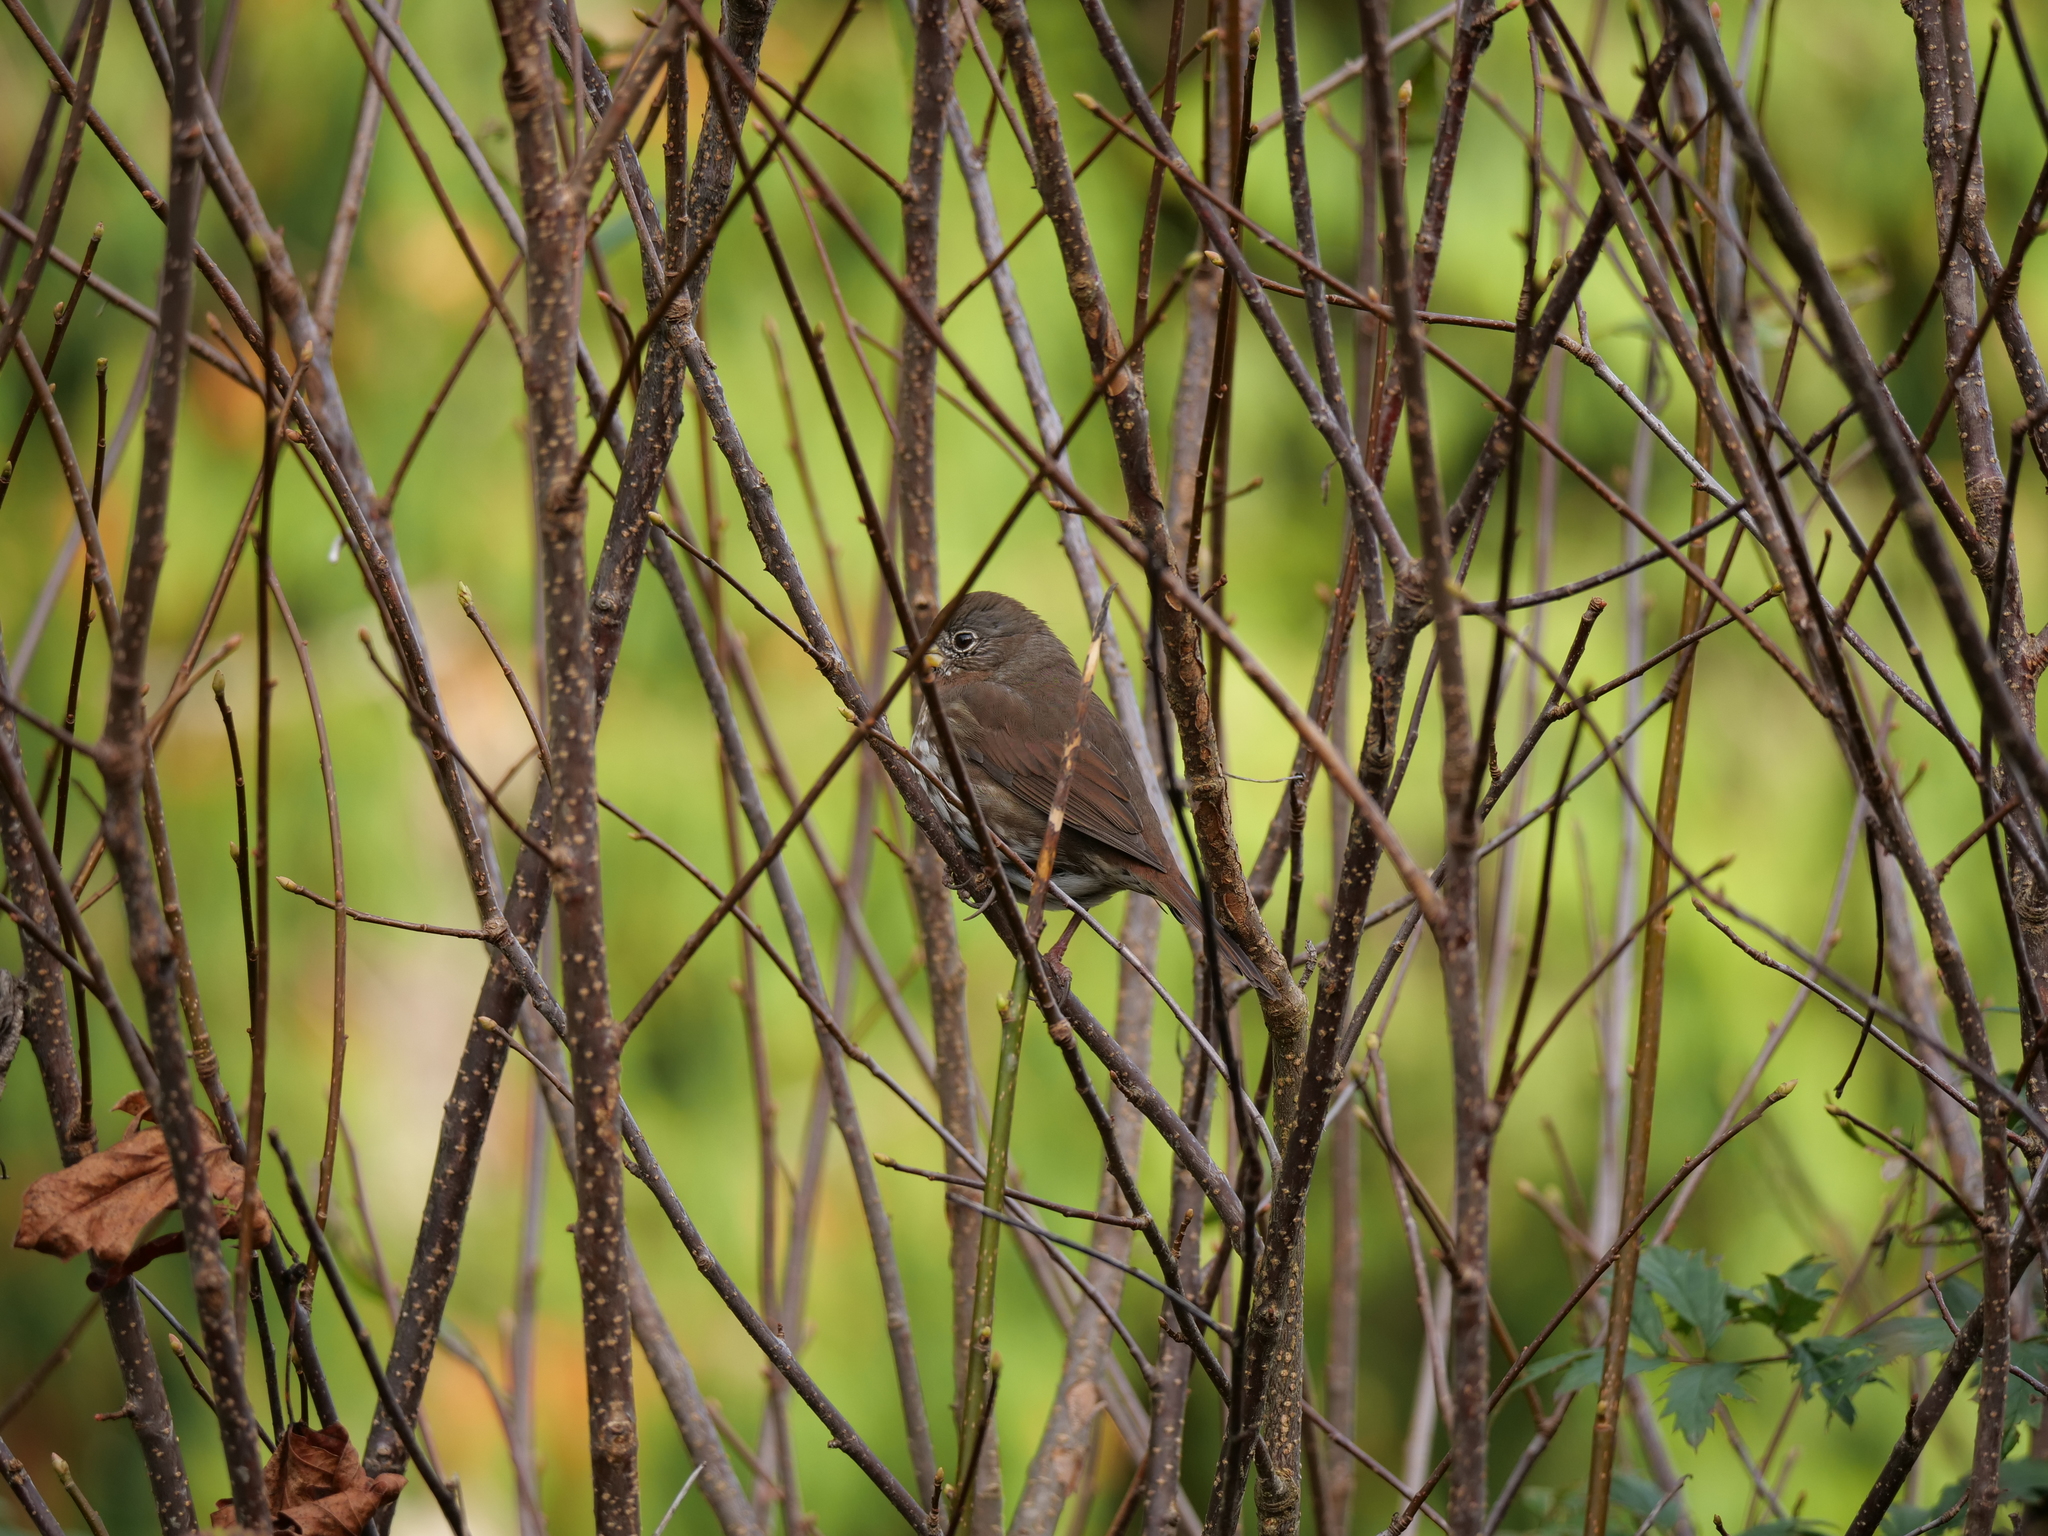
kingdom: Animalia
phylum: Chordata
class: Aves
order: Passeriformes
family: Passerellidae
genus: Passerella
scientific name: Passerella iliaca
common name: Fox sparrow
